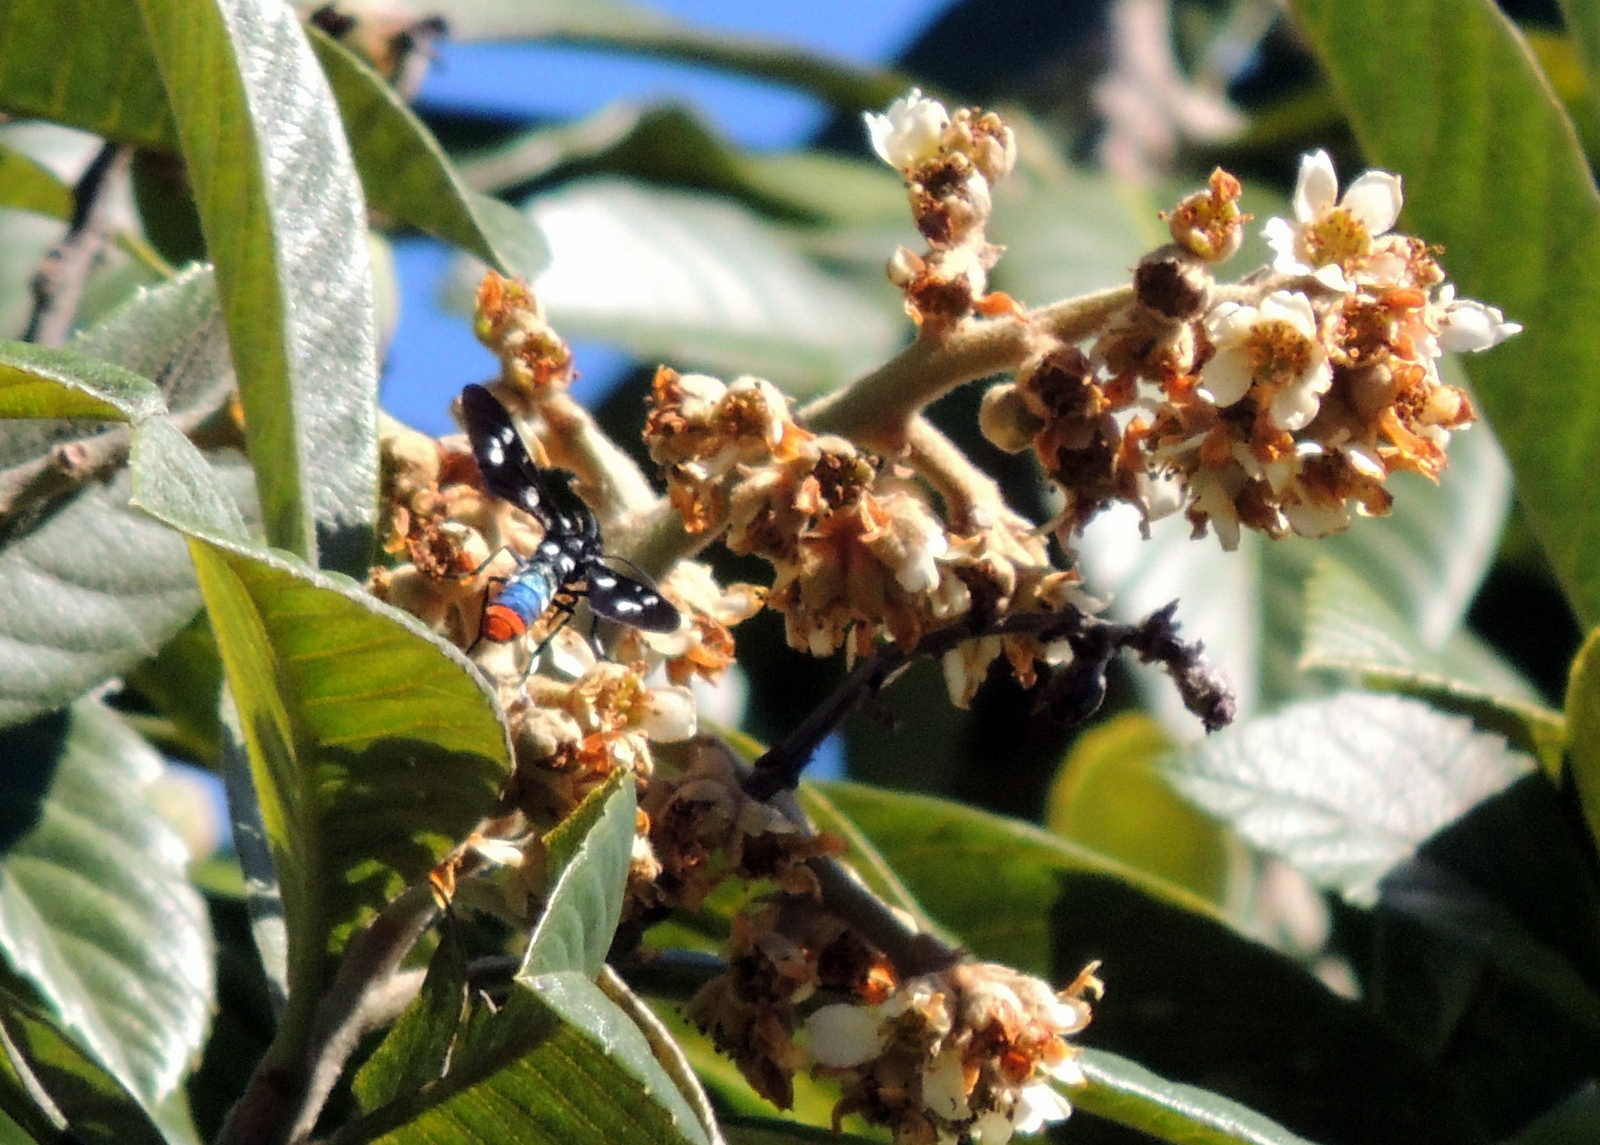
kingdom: Animalia
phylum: Arthropoda
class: Insecta
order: Lepidoptera
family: Erebidae
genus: Syntomeida
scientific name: Syntomeida epilais
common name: Polka-dot wasp moth
